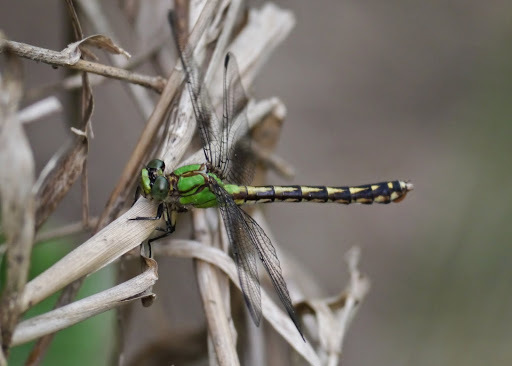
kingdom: Animalia
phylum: Arthropoda
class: Insecta
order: Odonata
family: Gomphidae
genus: Ophiogomphus
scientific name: Ophiogomphus aspersus
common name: Brook snaketail
